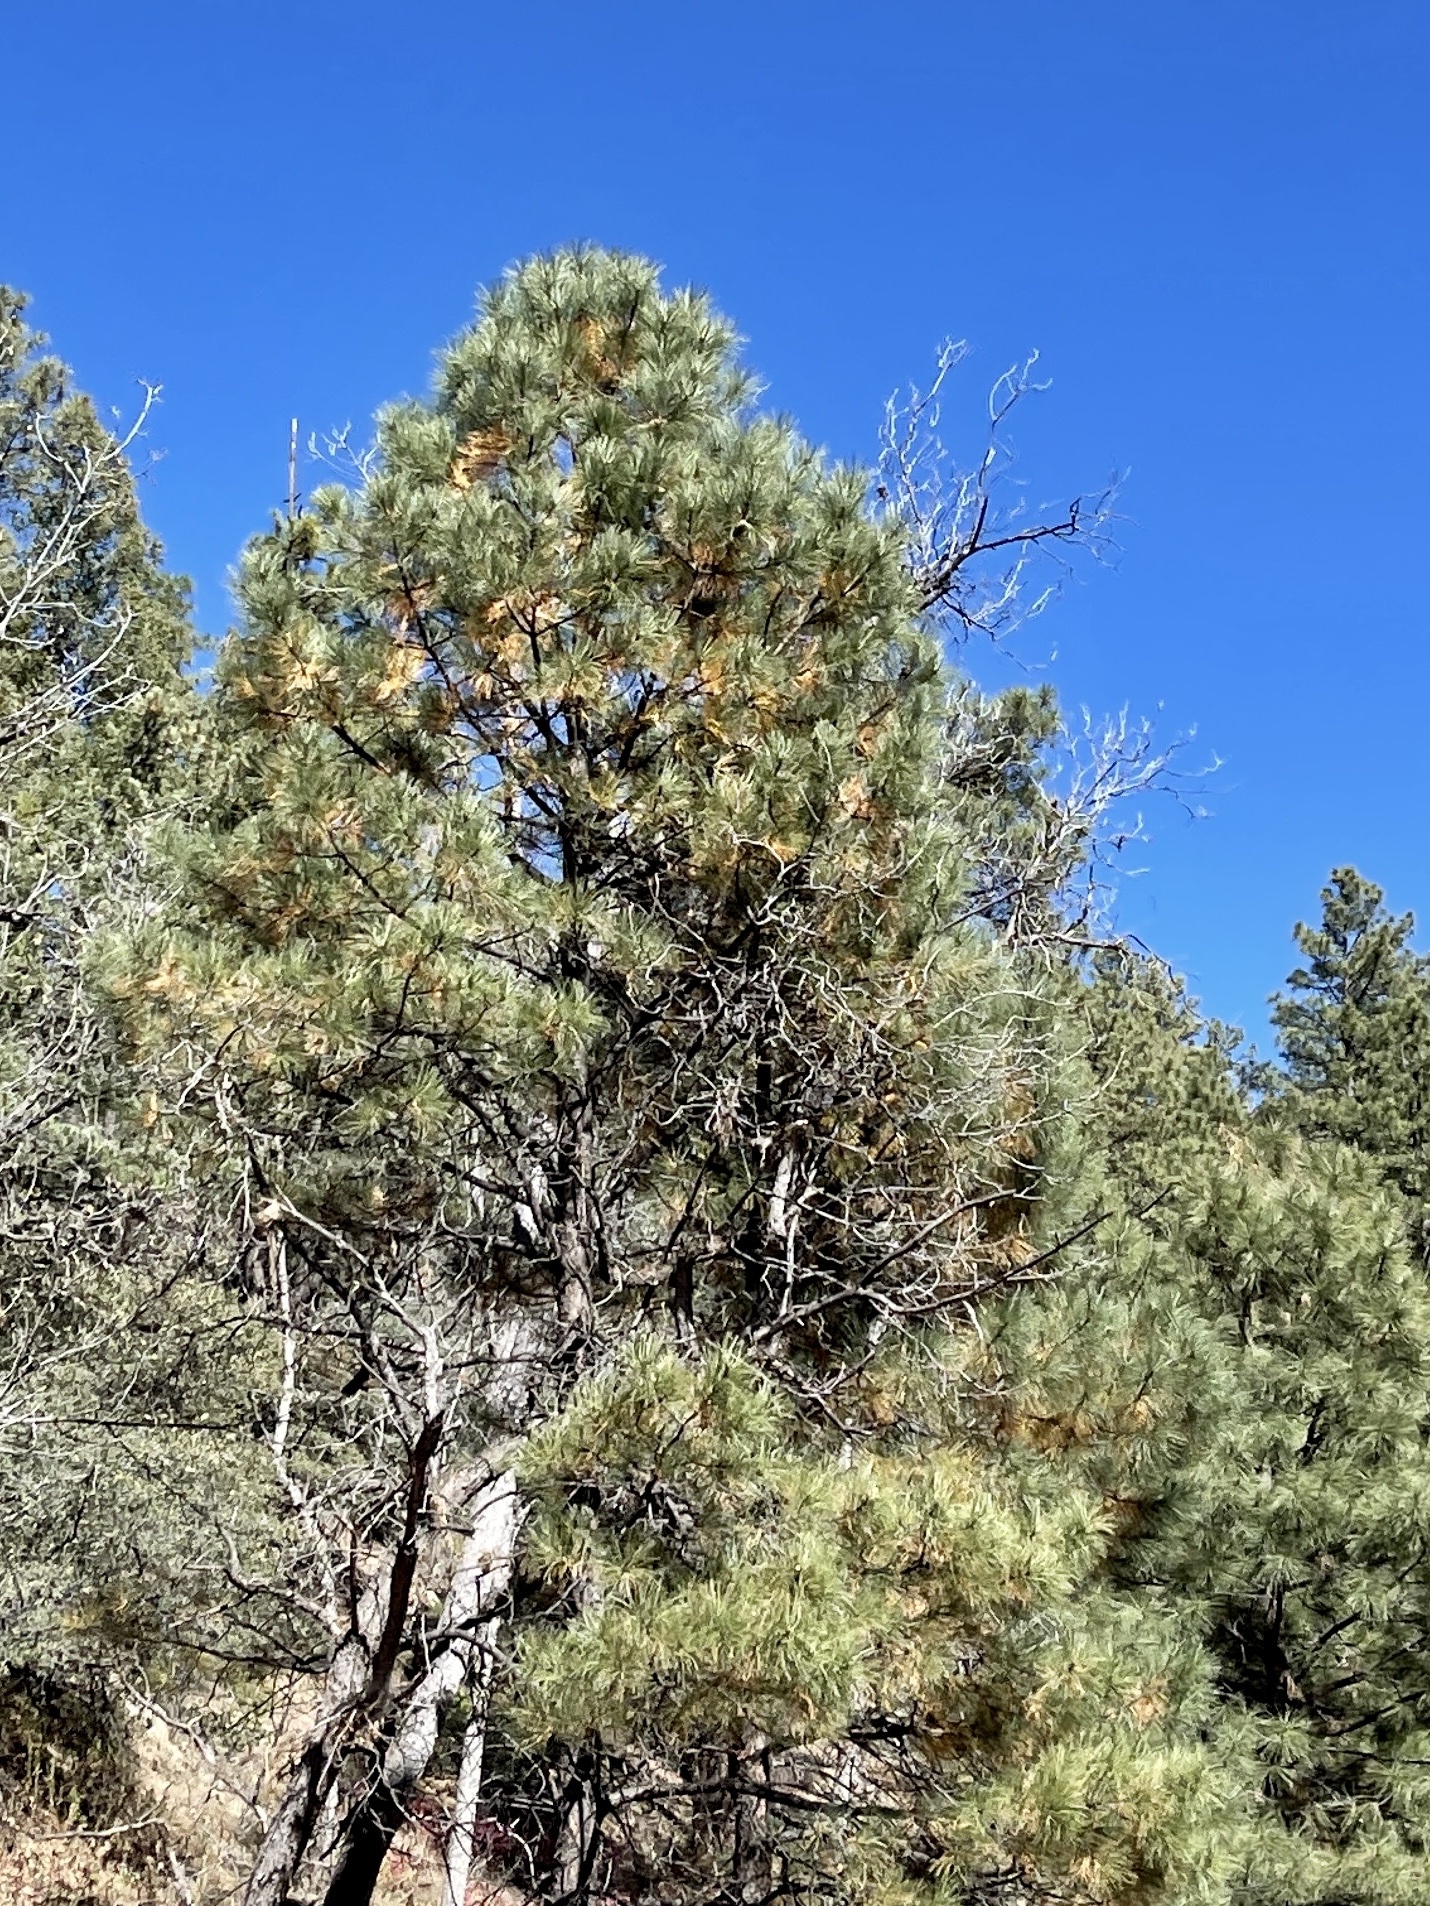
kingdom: Plantae
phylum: Tracheophyta
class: Pinopsida
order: Pinales
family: Pinaceae
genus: Pinus
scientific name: Pinus ponderosa
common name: Western yellow-pine
